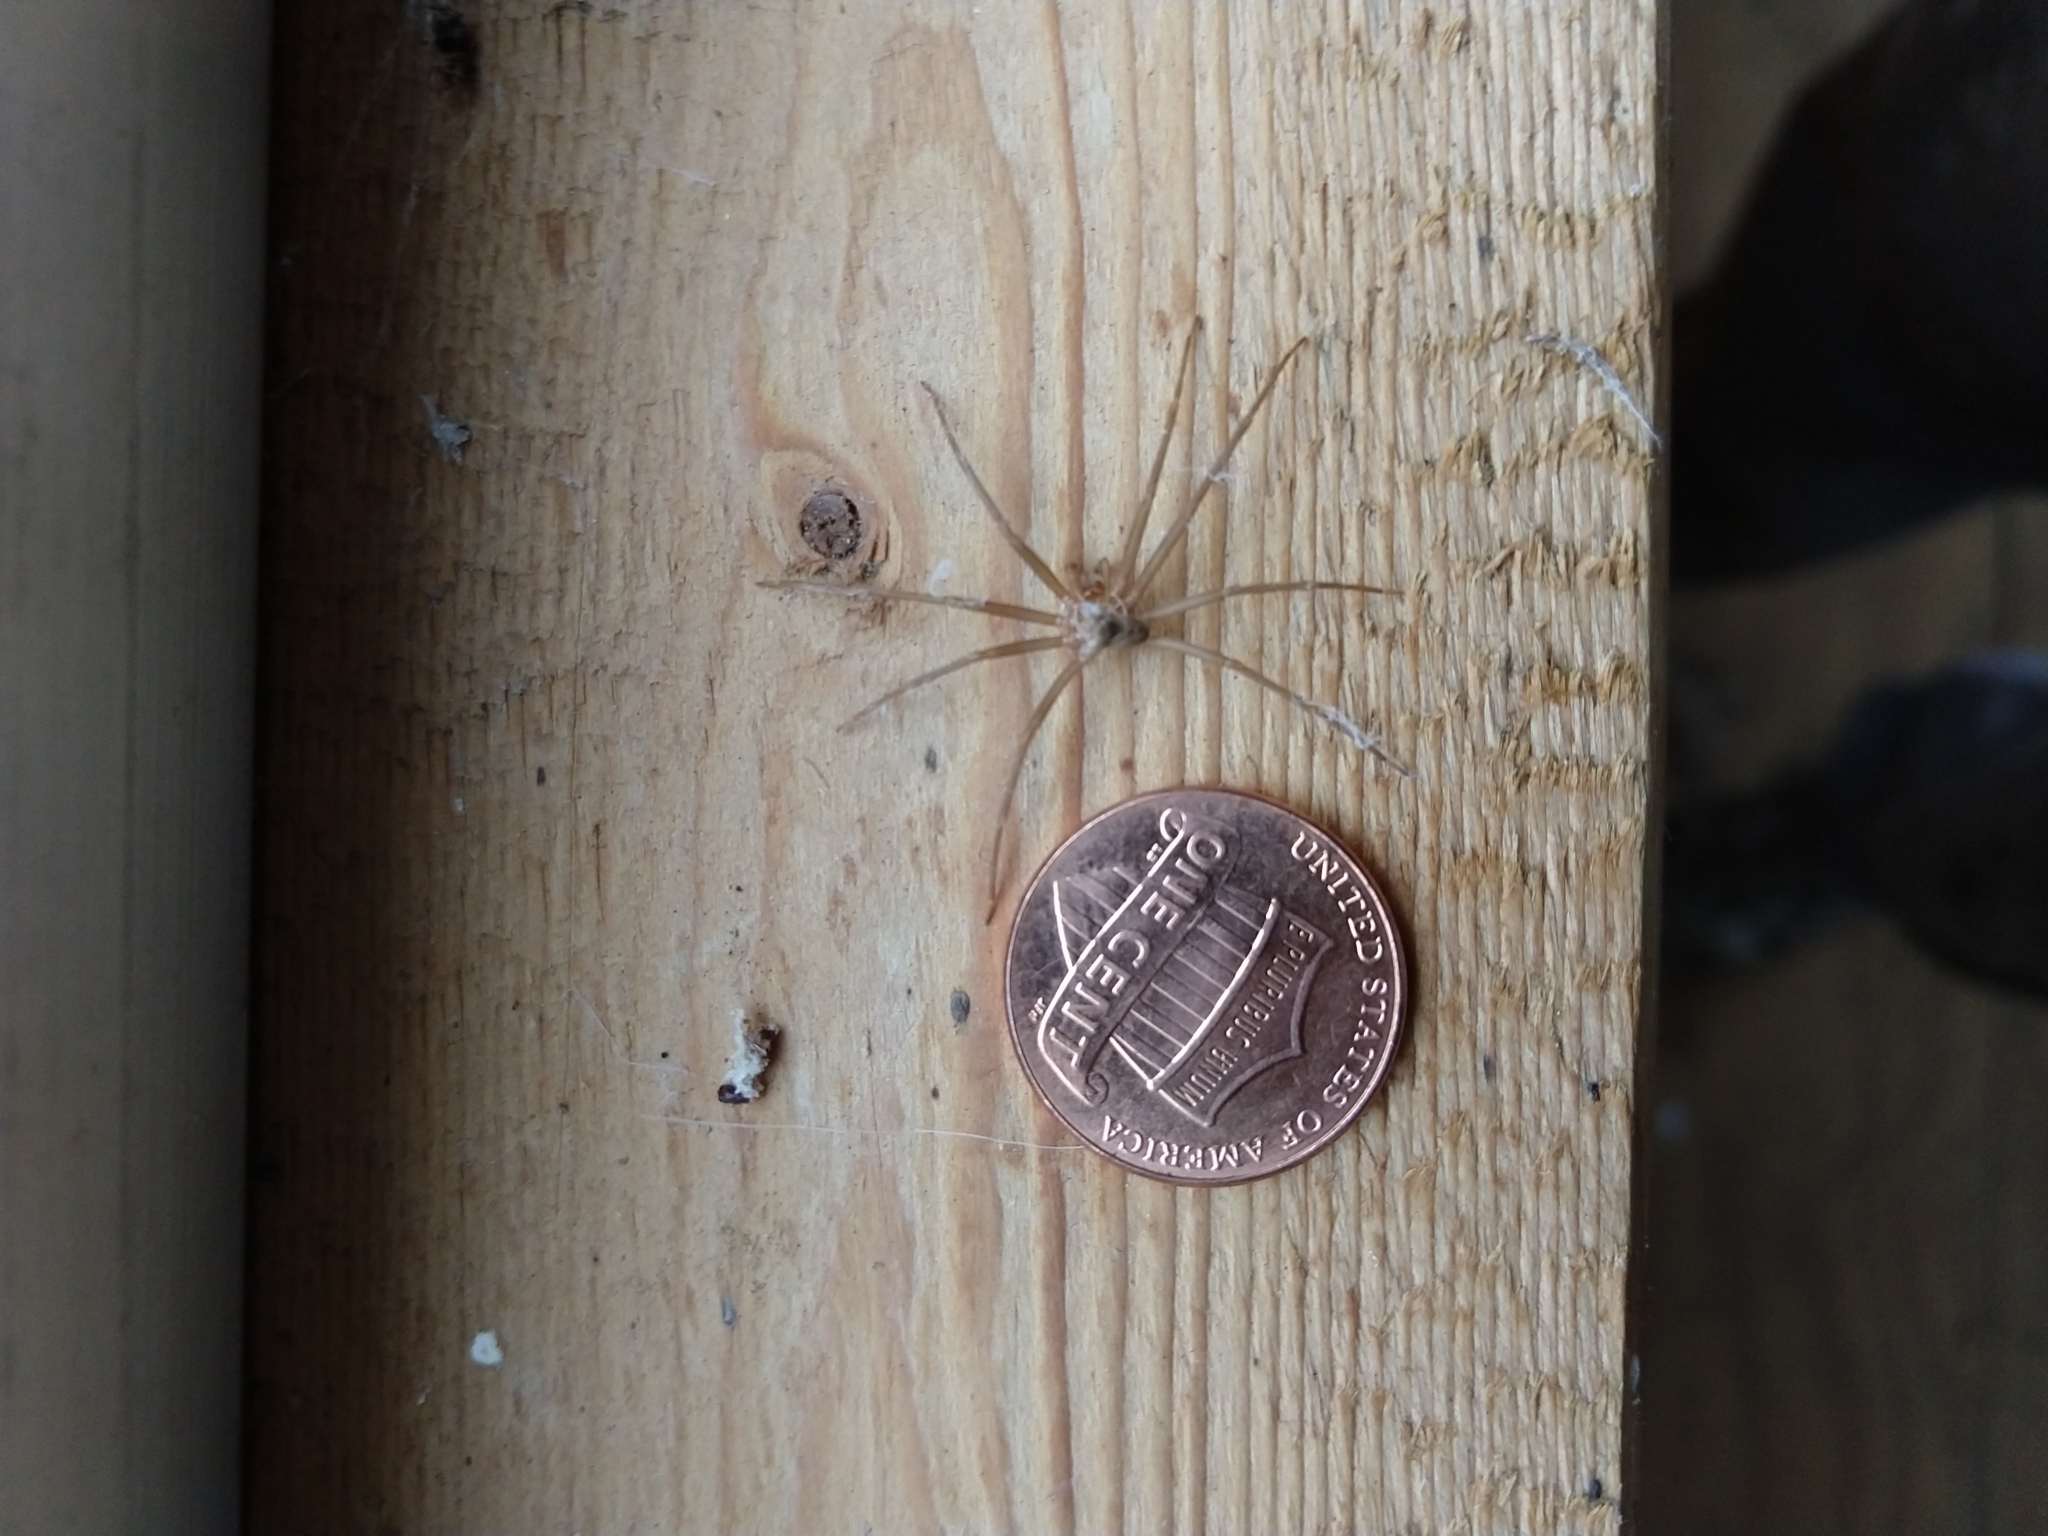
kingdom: Animalia
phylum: Arthropoda
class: Arachnida
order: Araneae
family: Sicariidae
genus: Loxosceles
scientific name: Loxosceles reclusa
